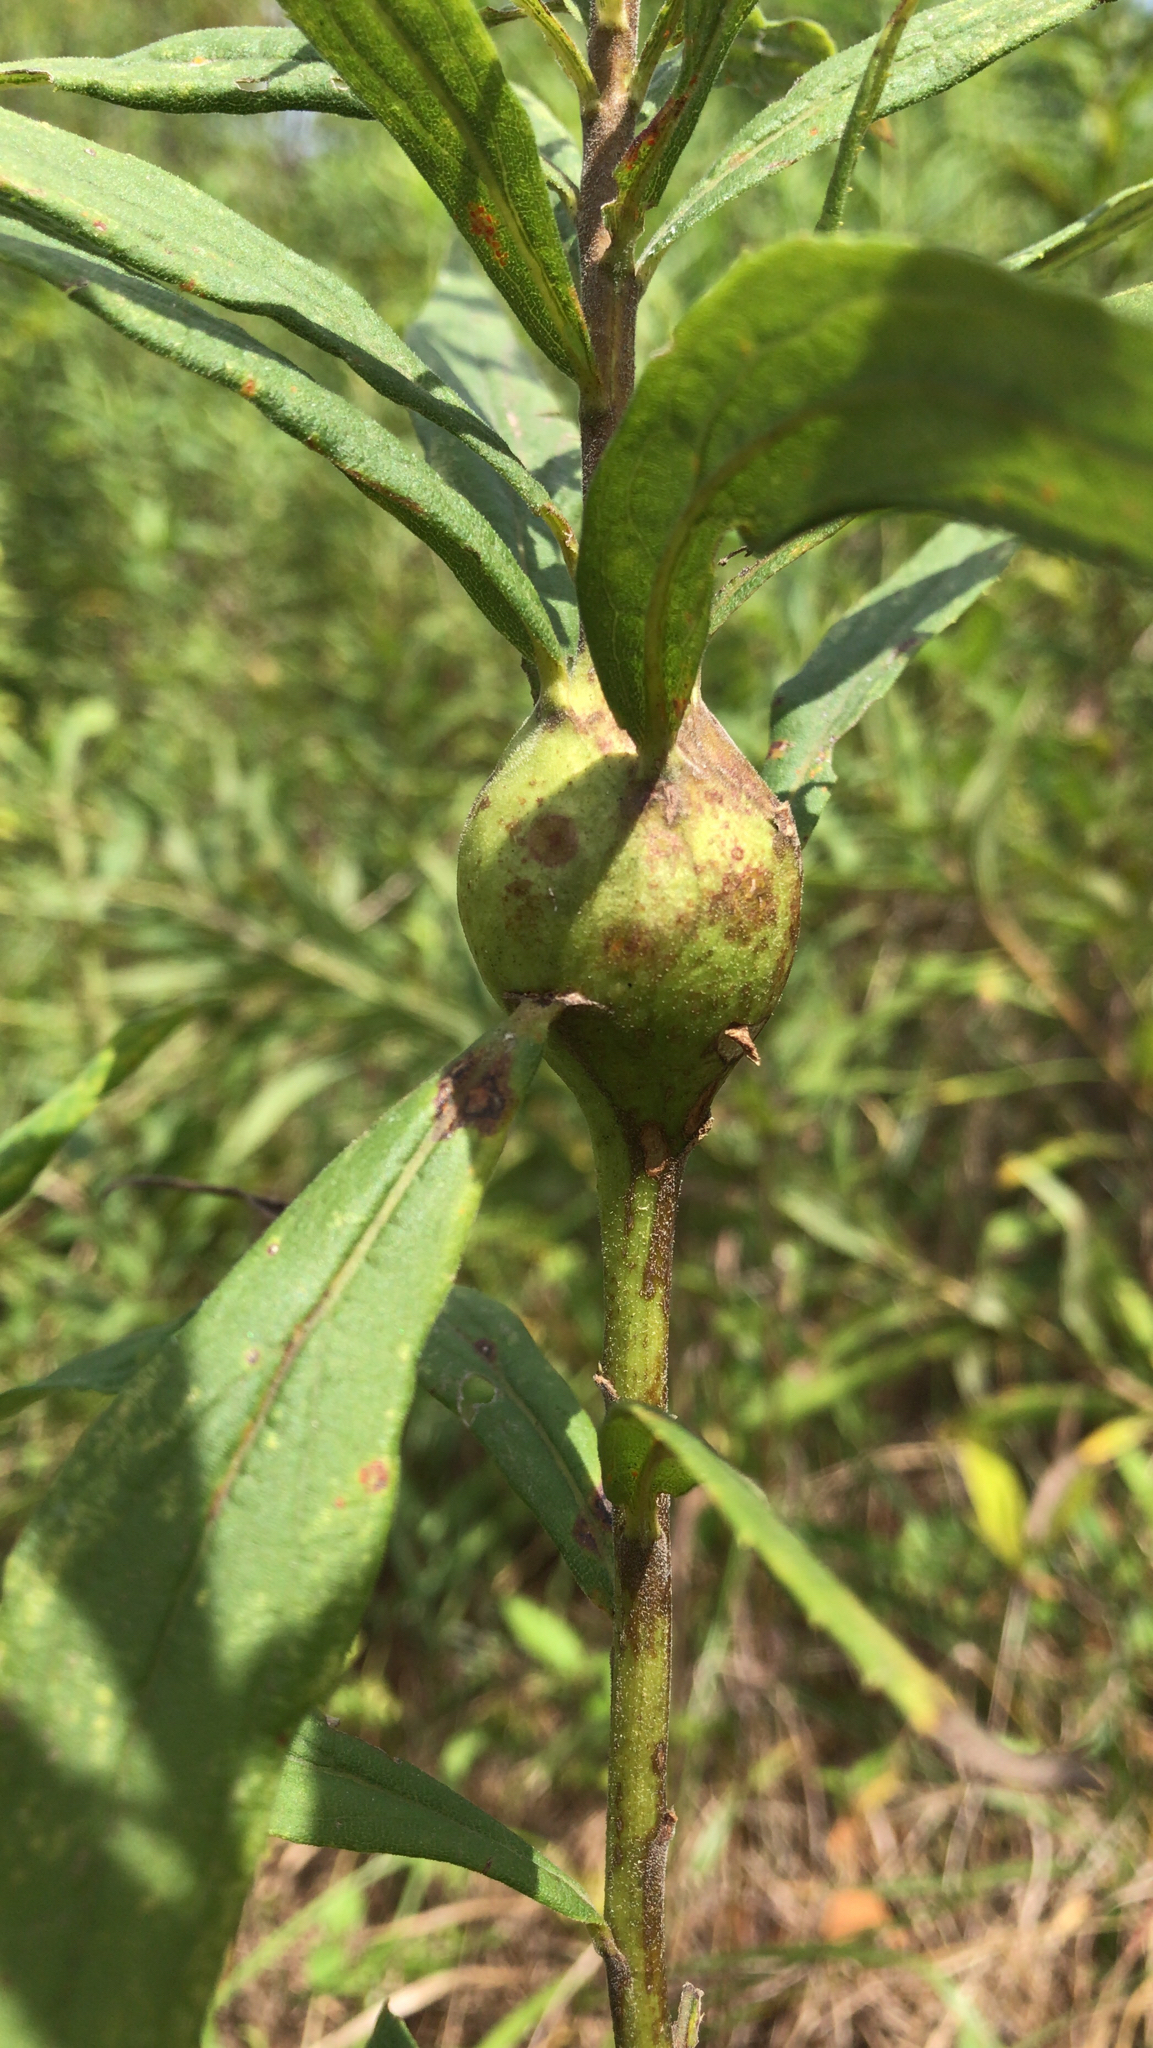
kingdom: Animalia
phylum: Arthropoda
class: Insecta
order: Diptera
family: Tephritidae
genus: Eurosta
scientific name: Eurosta solidaginis
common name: Goldenrod gall fly
